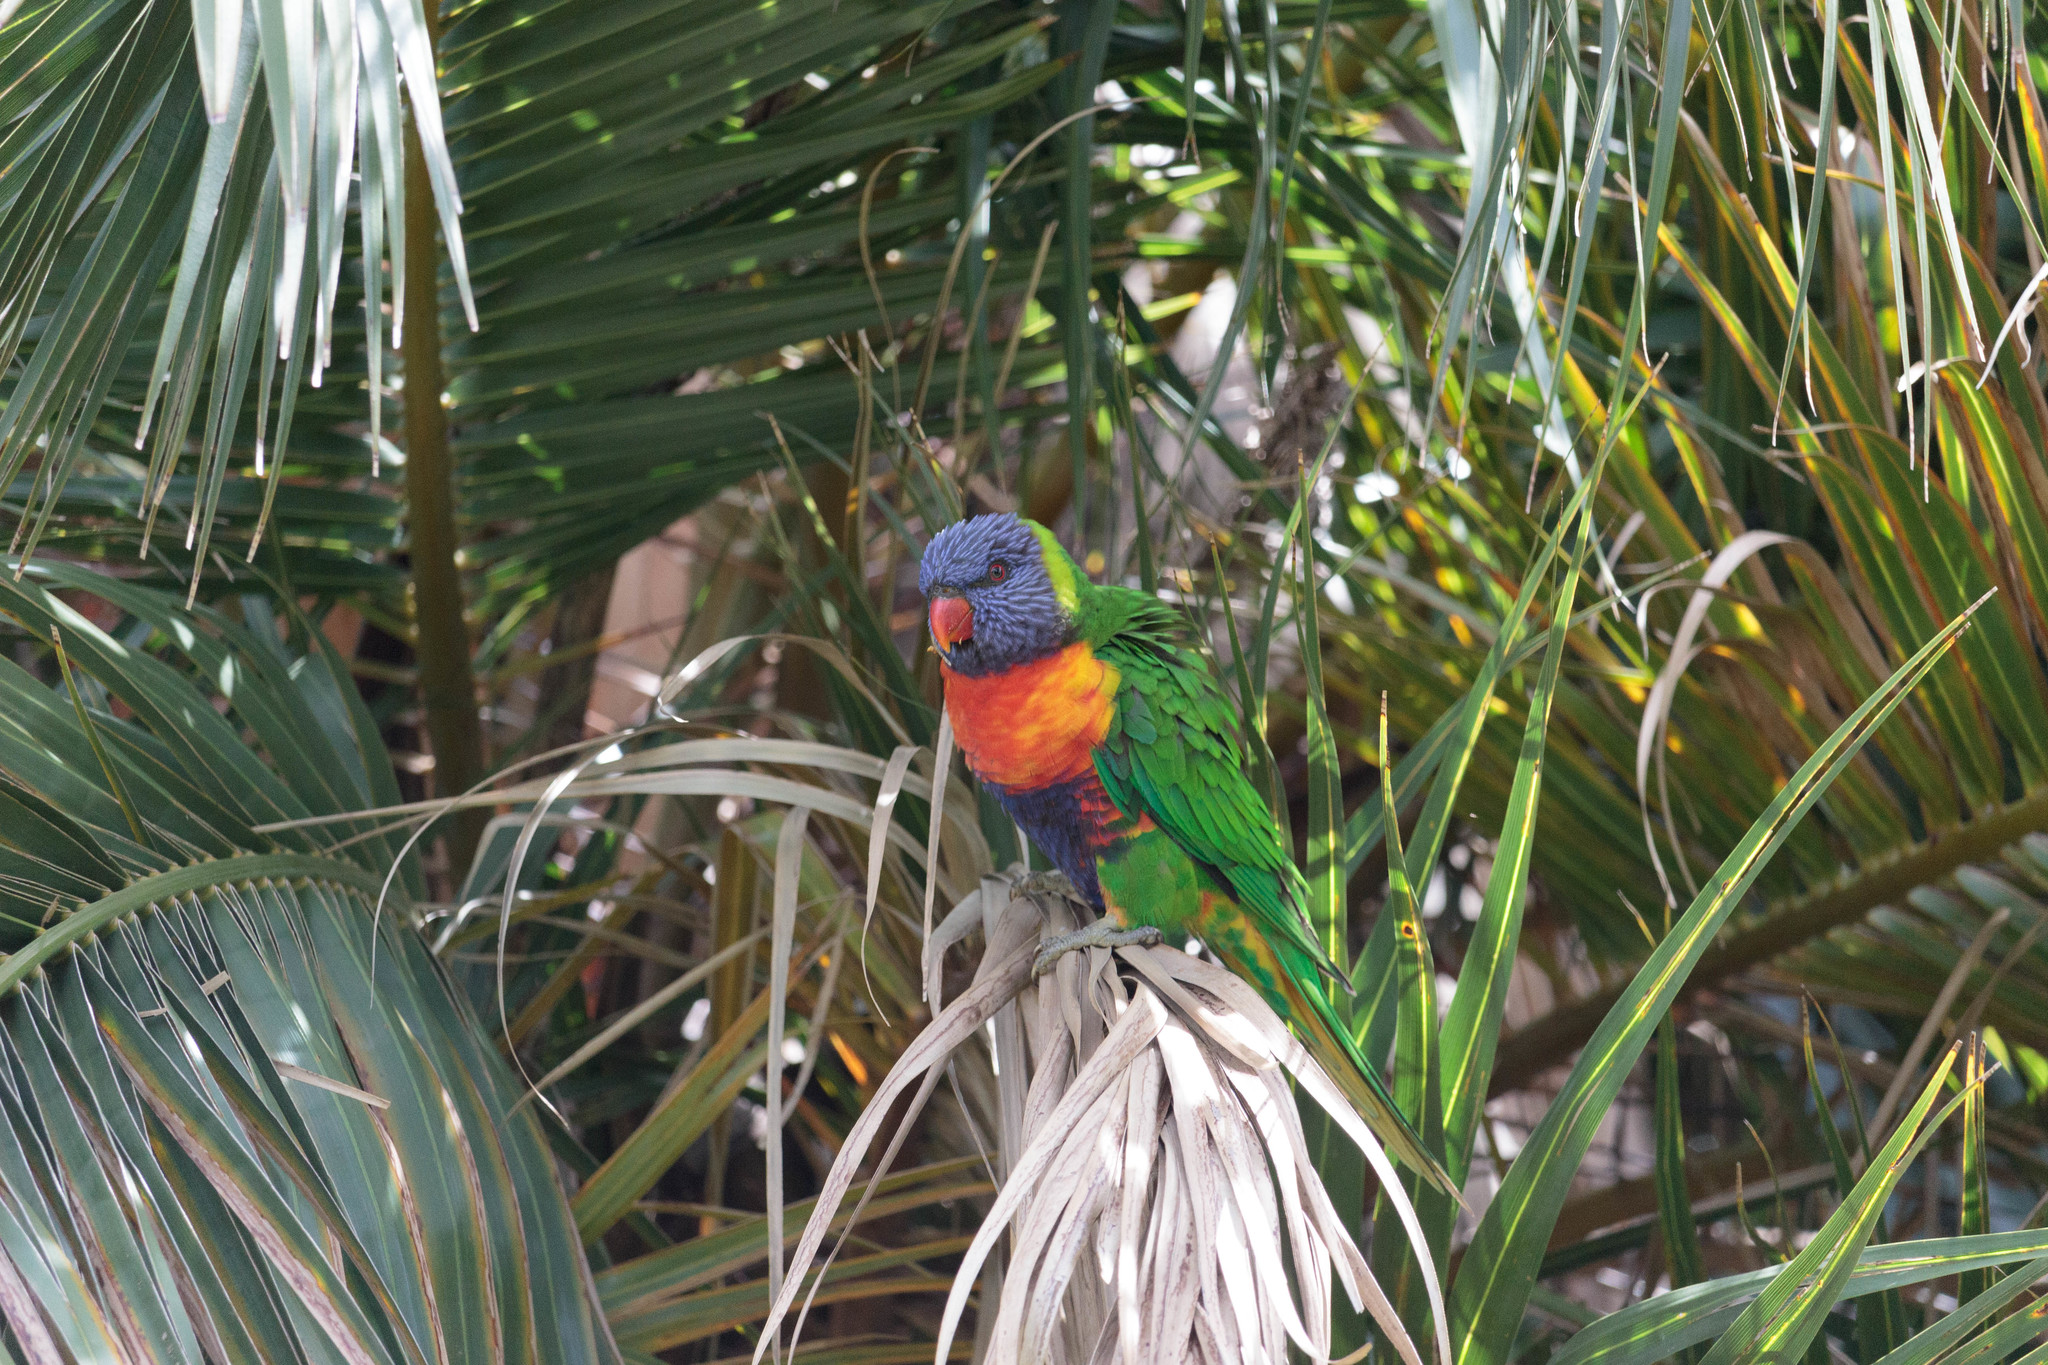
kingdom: Animalia
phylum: Chordata
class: Aves
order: Psittaciformes
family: Psittacidae
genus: Trichoglossus
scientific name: Trichoglossus haematodus
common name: Coconut lorikeet
